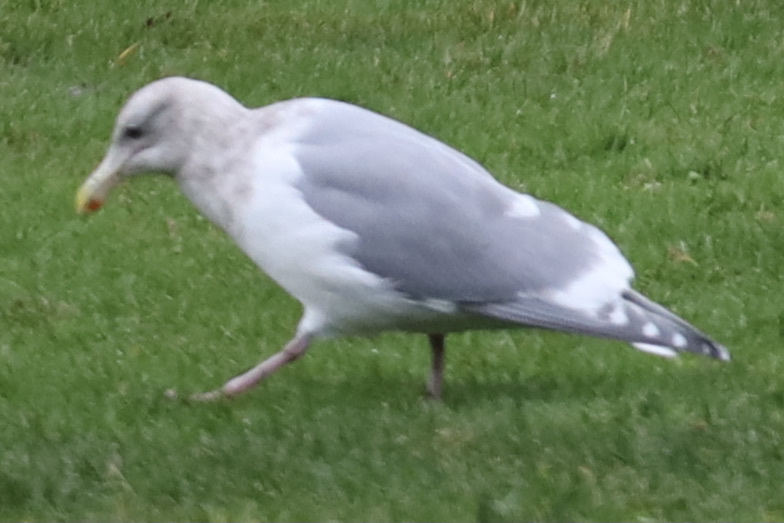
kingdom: Animalia
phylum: Chordata
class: Aves
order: Charadriiformes
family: Laridae
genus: Larus
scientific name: Larus
